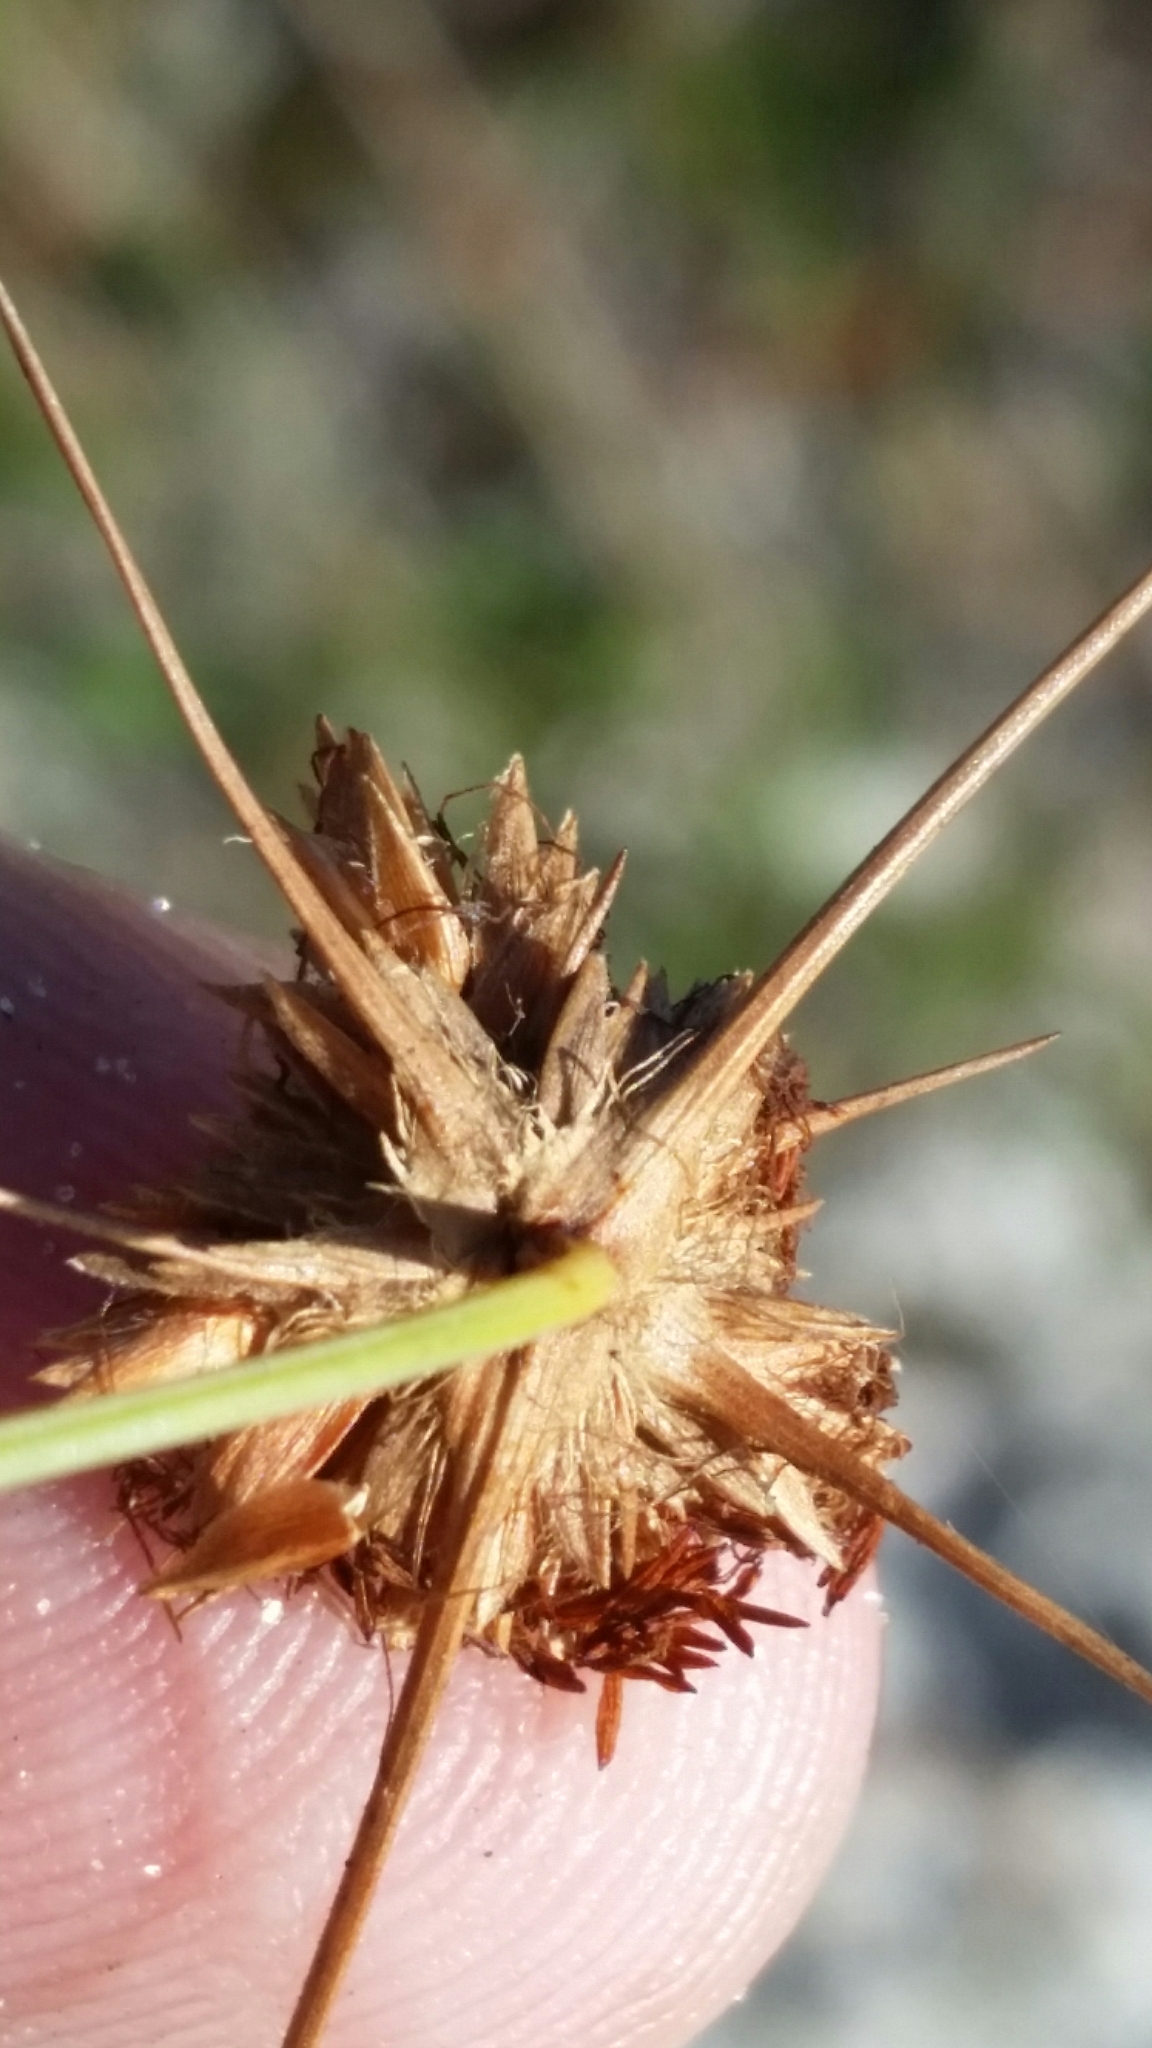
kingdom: Plantae
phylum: Tracheophyta
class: Liliopsida
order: Poales
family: Cyperaceae
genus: Bulbostylis
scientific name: Bulbostylis warei
